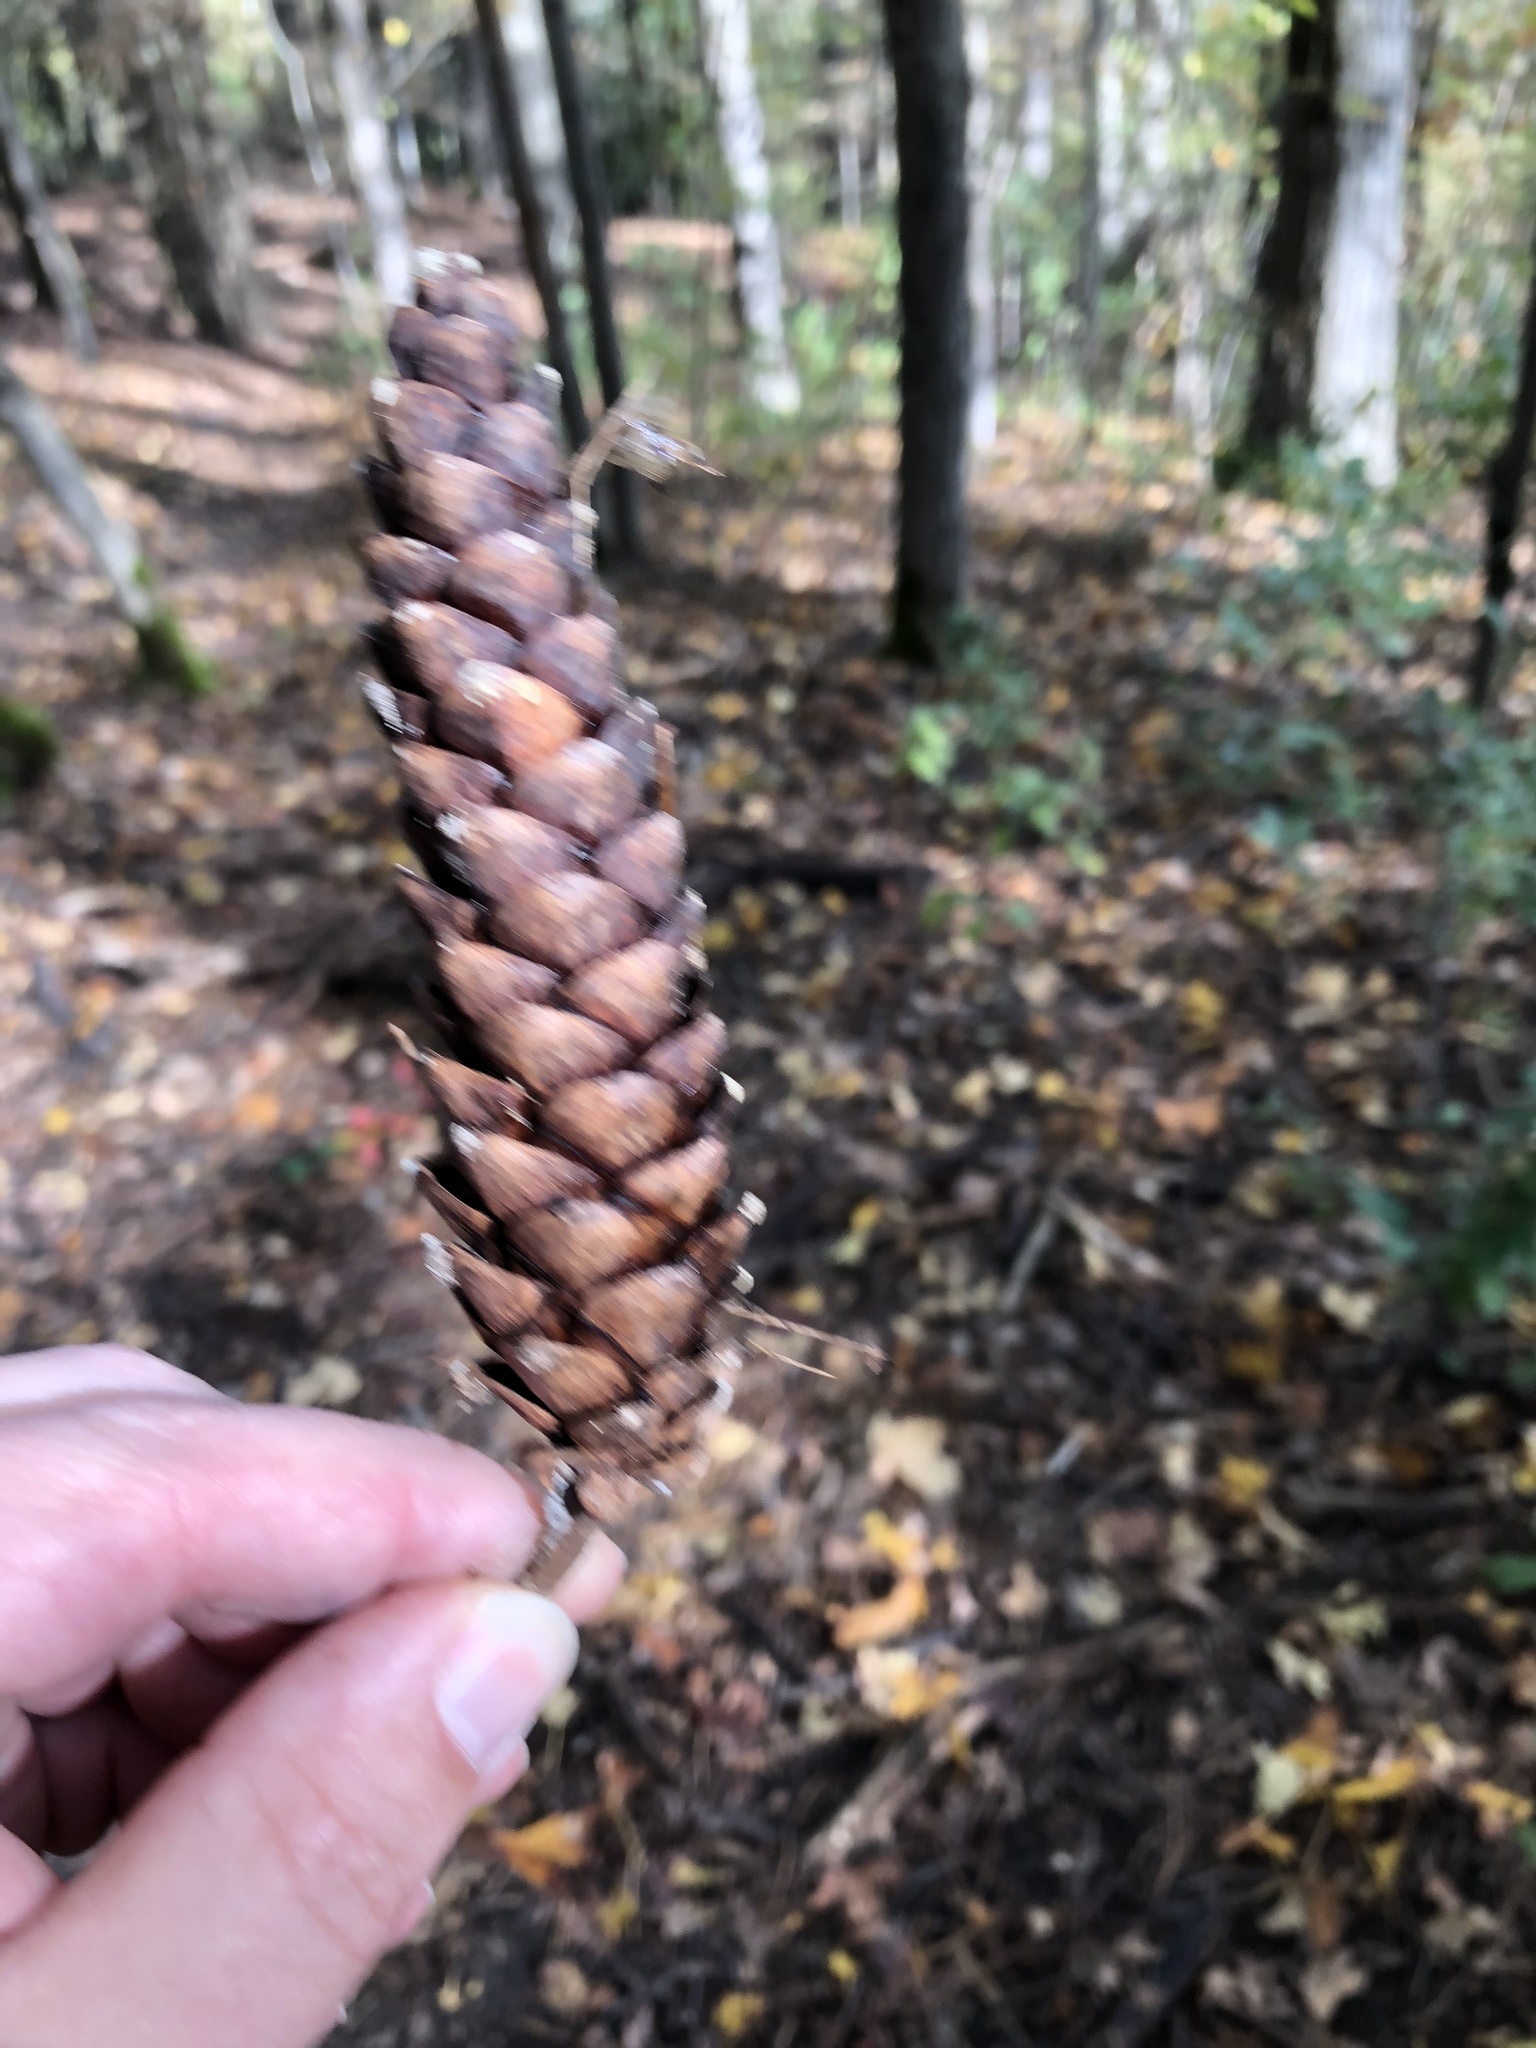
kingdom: Plantae
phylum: Tracheophyta
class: Pinopsida
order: Pinales
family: Pinaceae
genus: Pinus
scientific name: Pinus strobus
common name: Weymouth pine
